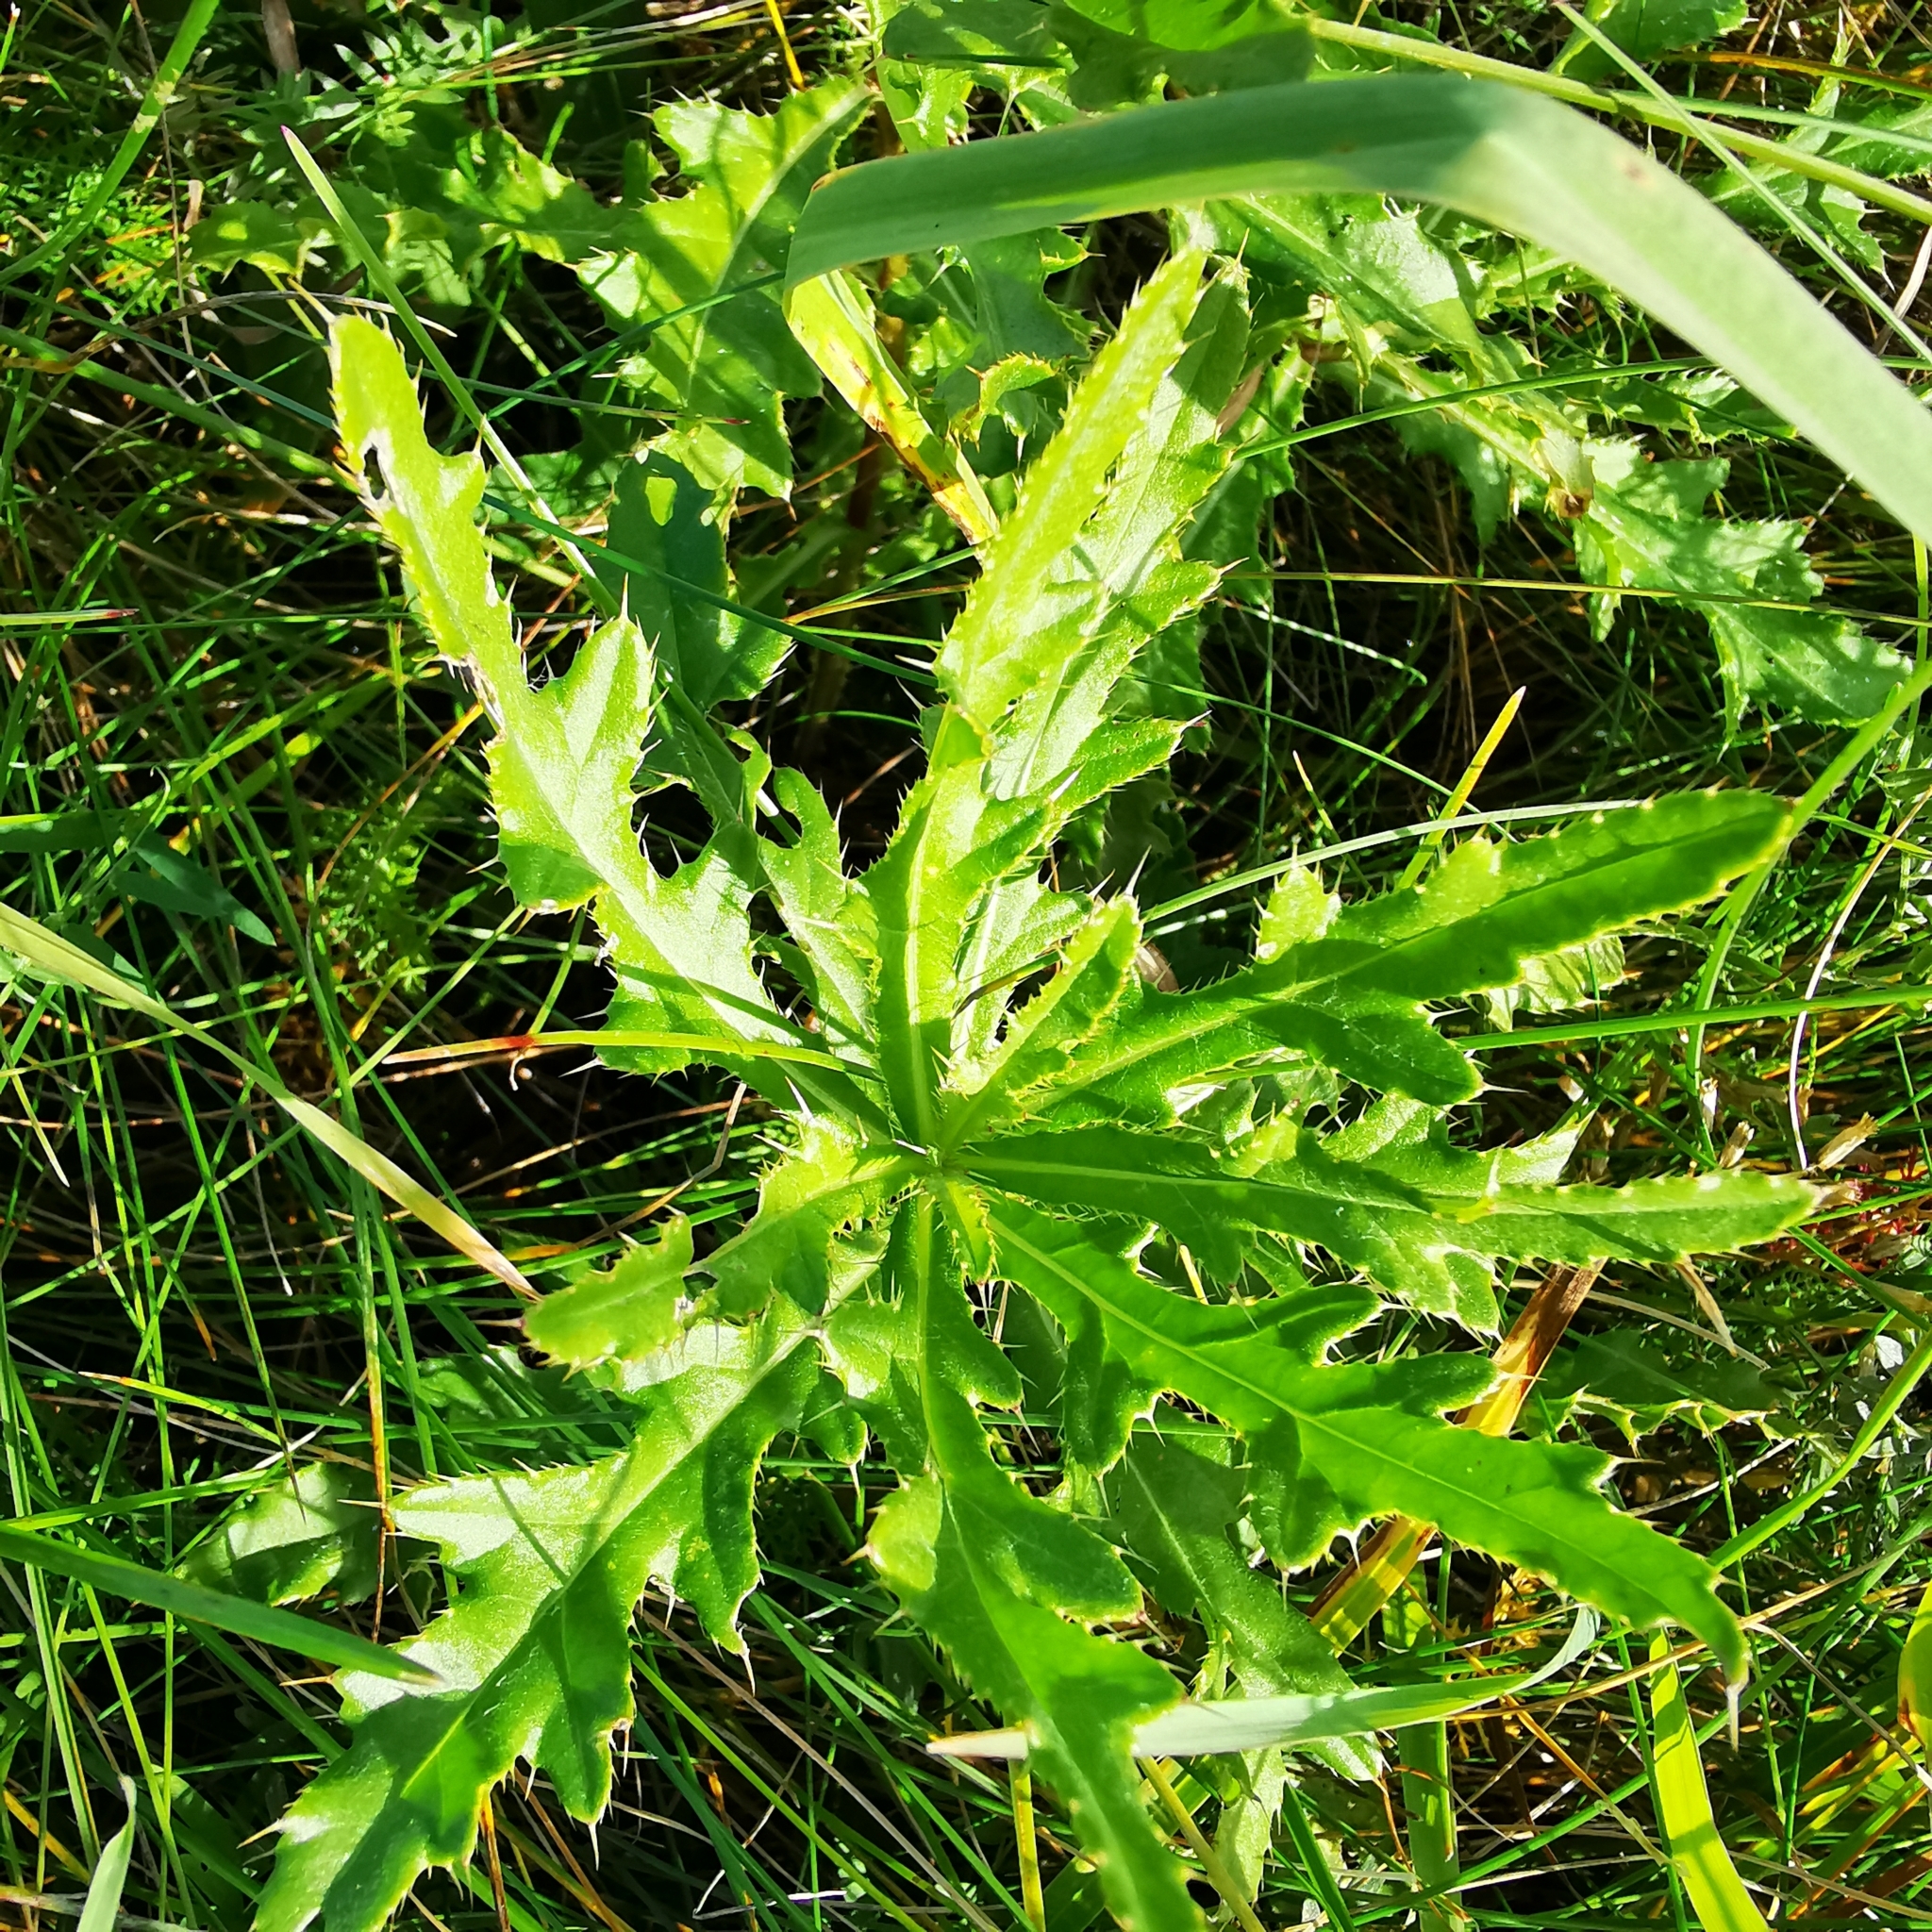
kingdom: Plantae
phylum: Tracheophyta
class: Magnoliopsida
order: Asterales
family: Asteraceae
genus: Cirsium
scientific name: Cirsium arvense
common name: Creeping thistle
